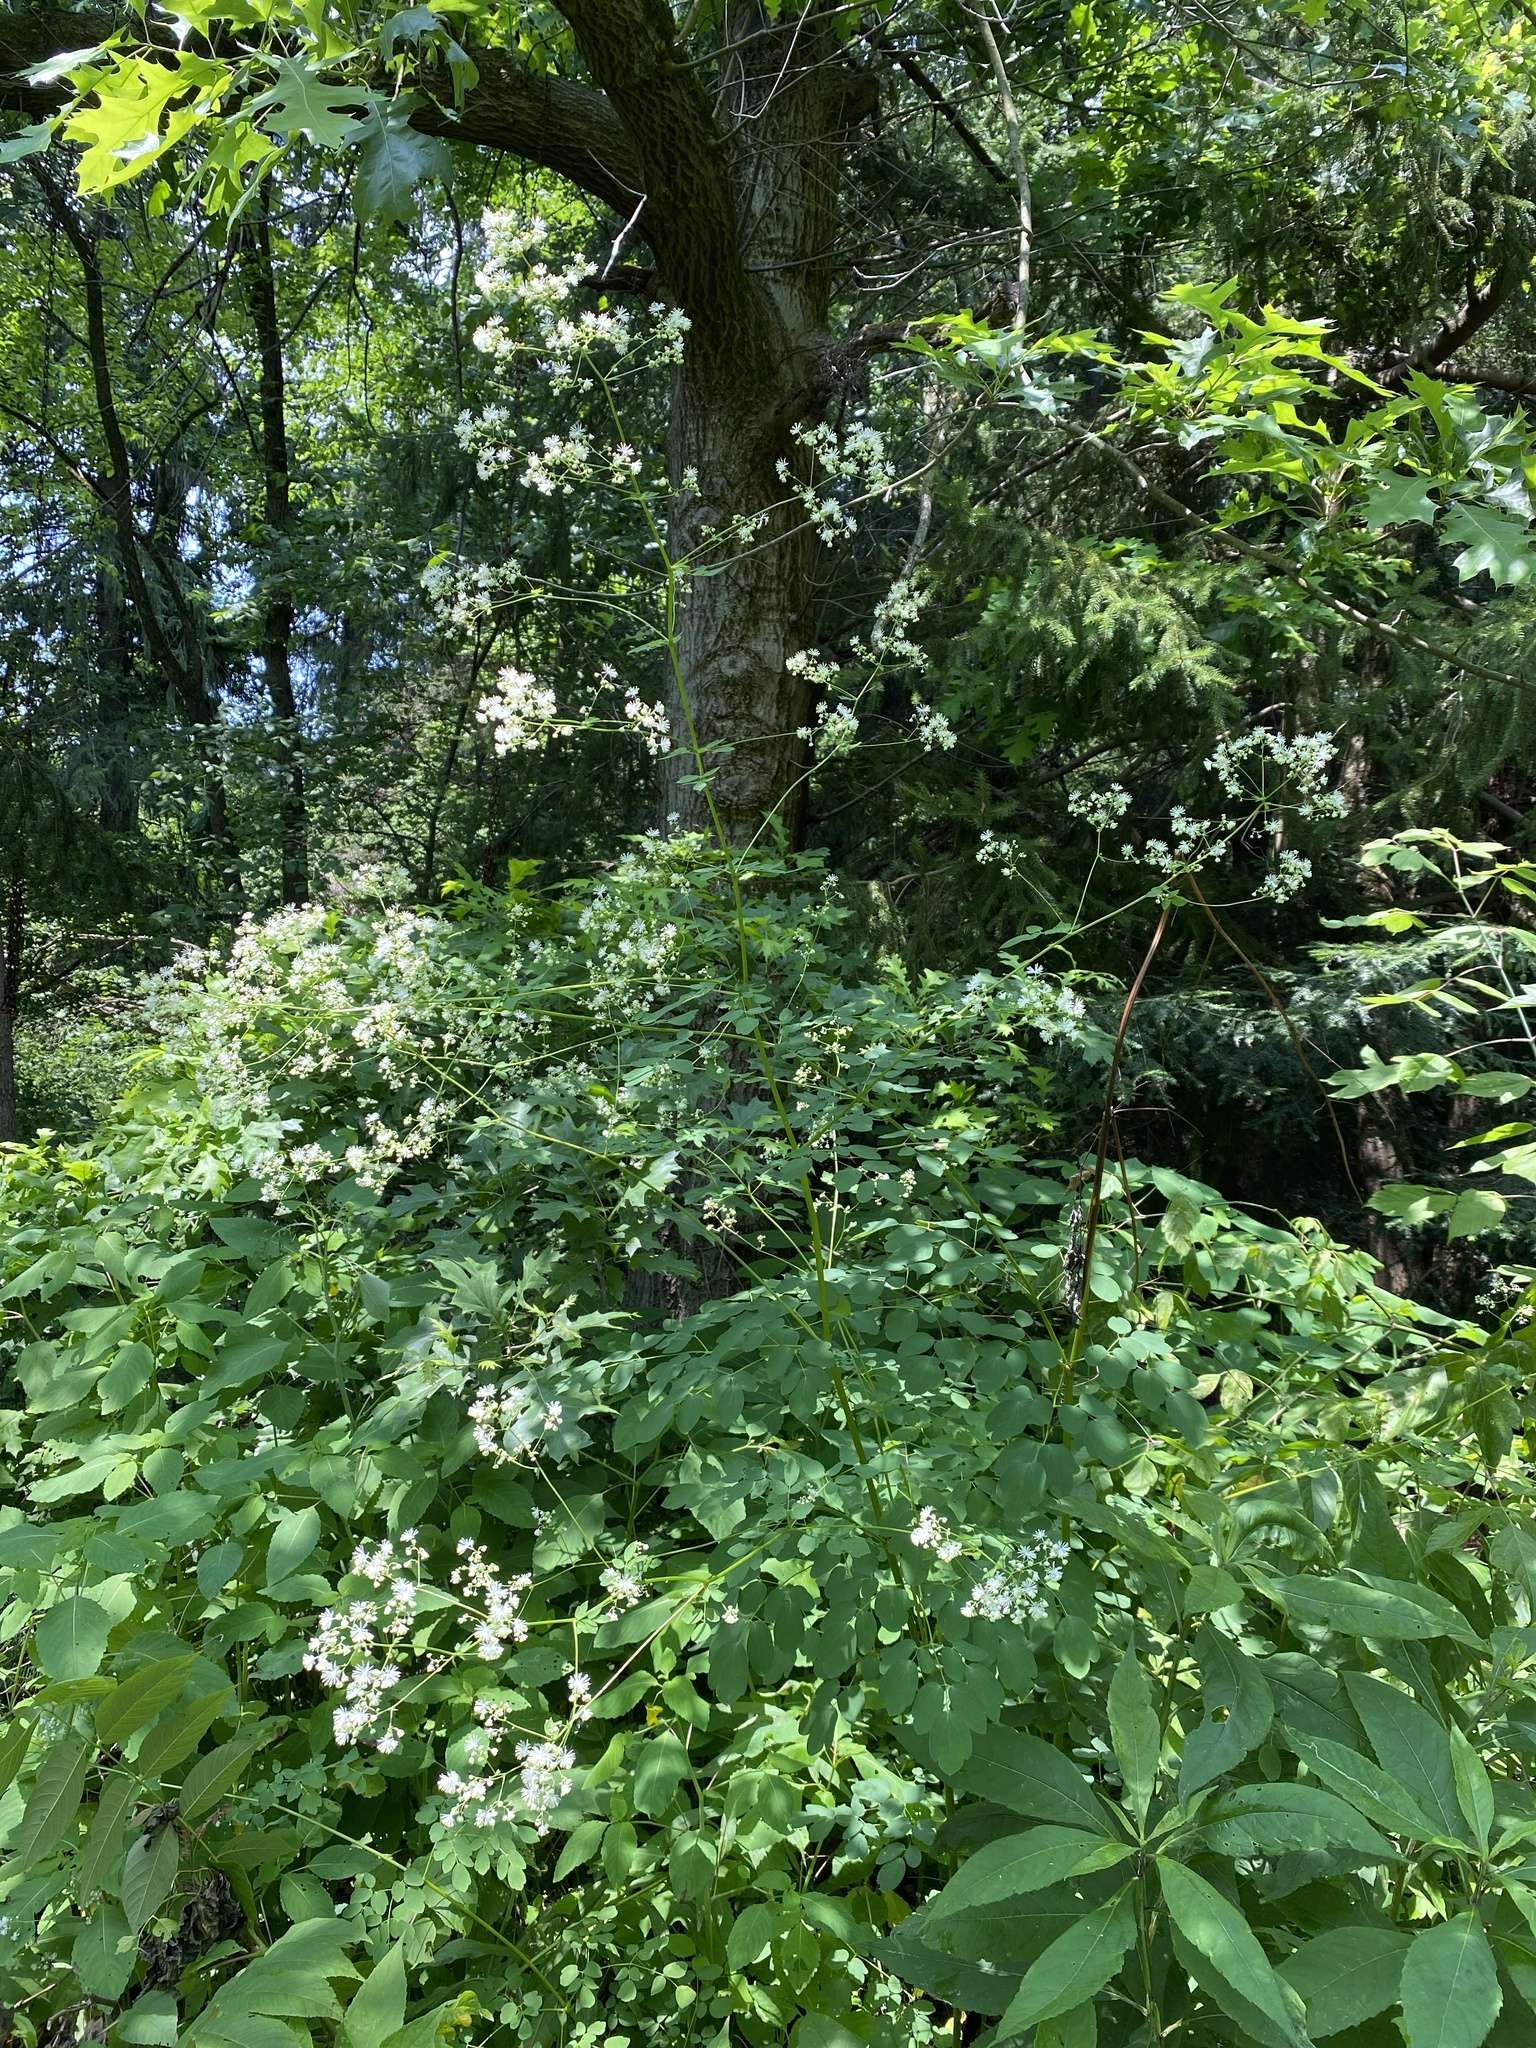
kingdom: Plantae
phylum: Tracheophyta
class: Magnoliopsida
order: Ranunculales
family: Ranunculaceae
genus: Thalictrum
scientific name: Thalictrum pubescens
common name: King-of-the-meadow
